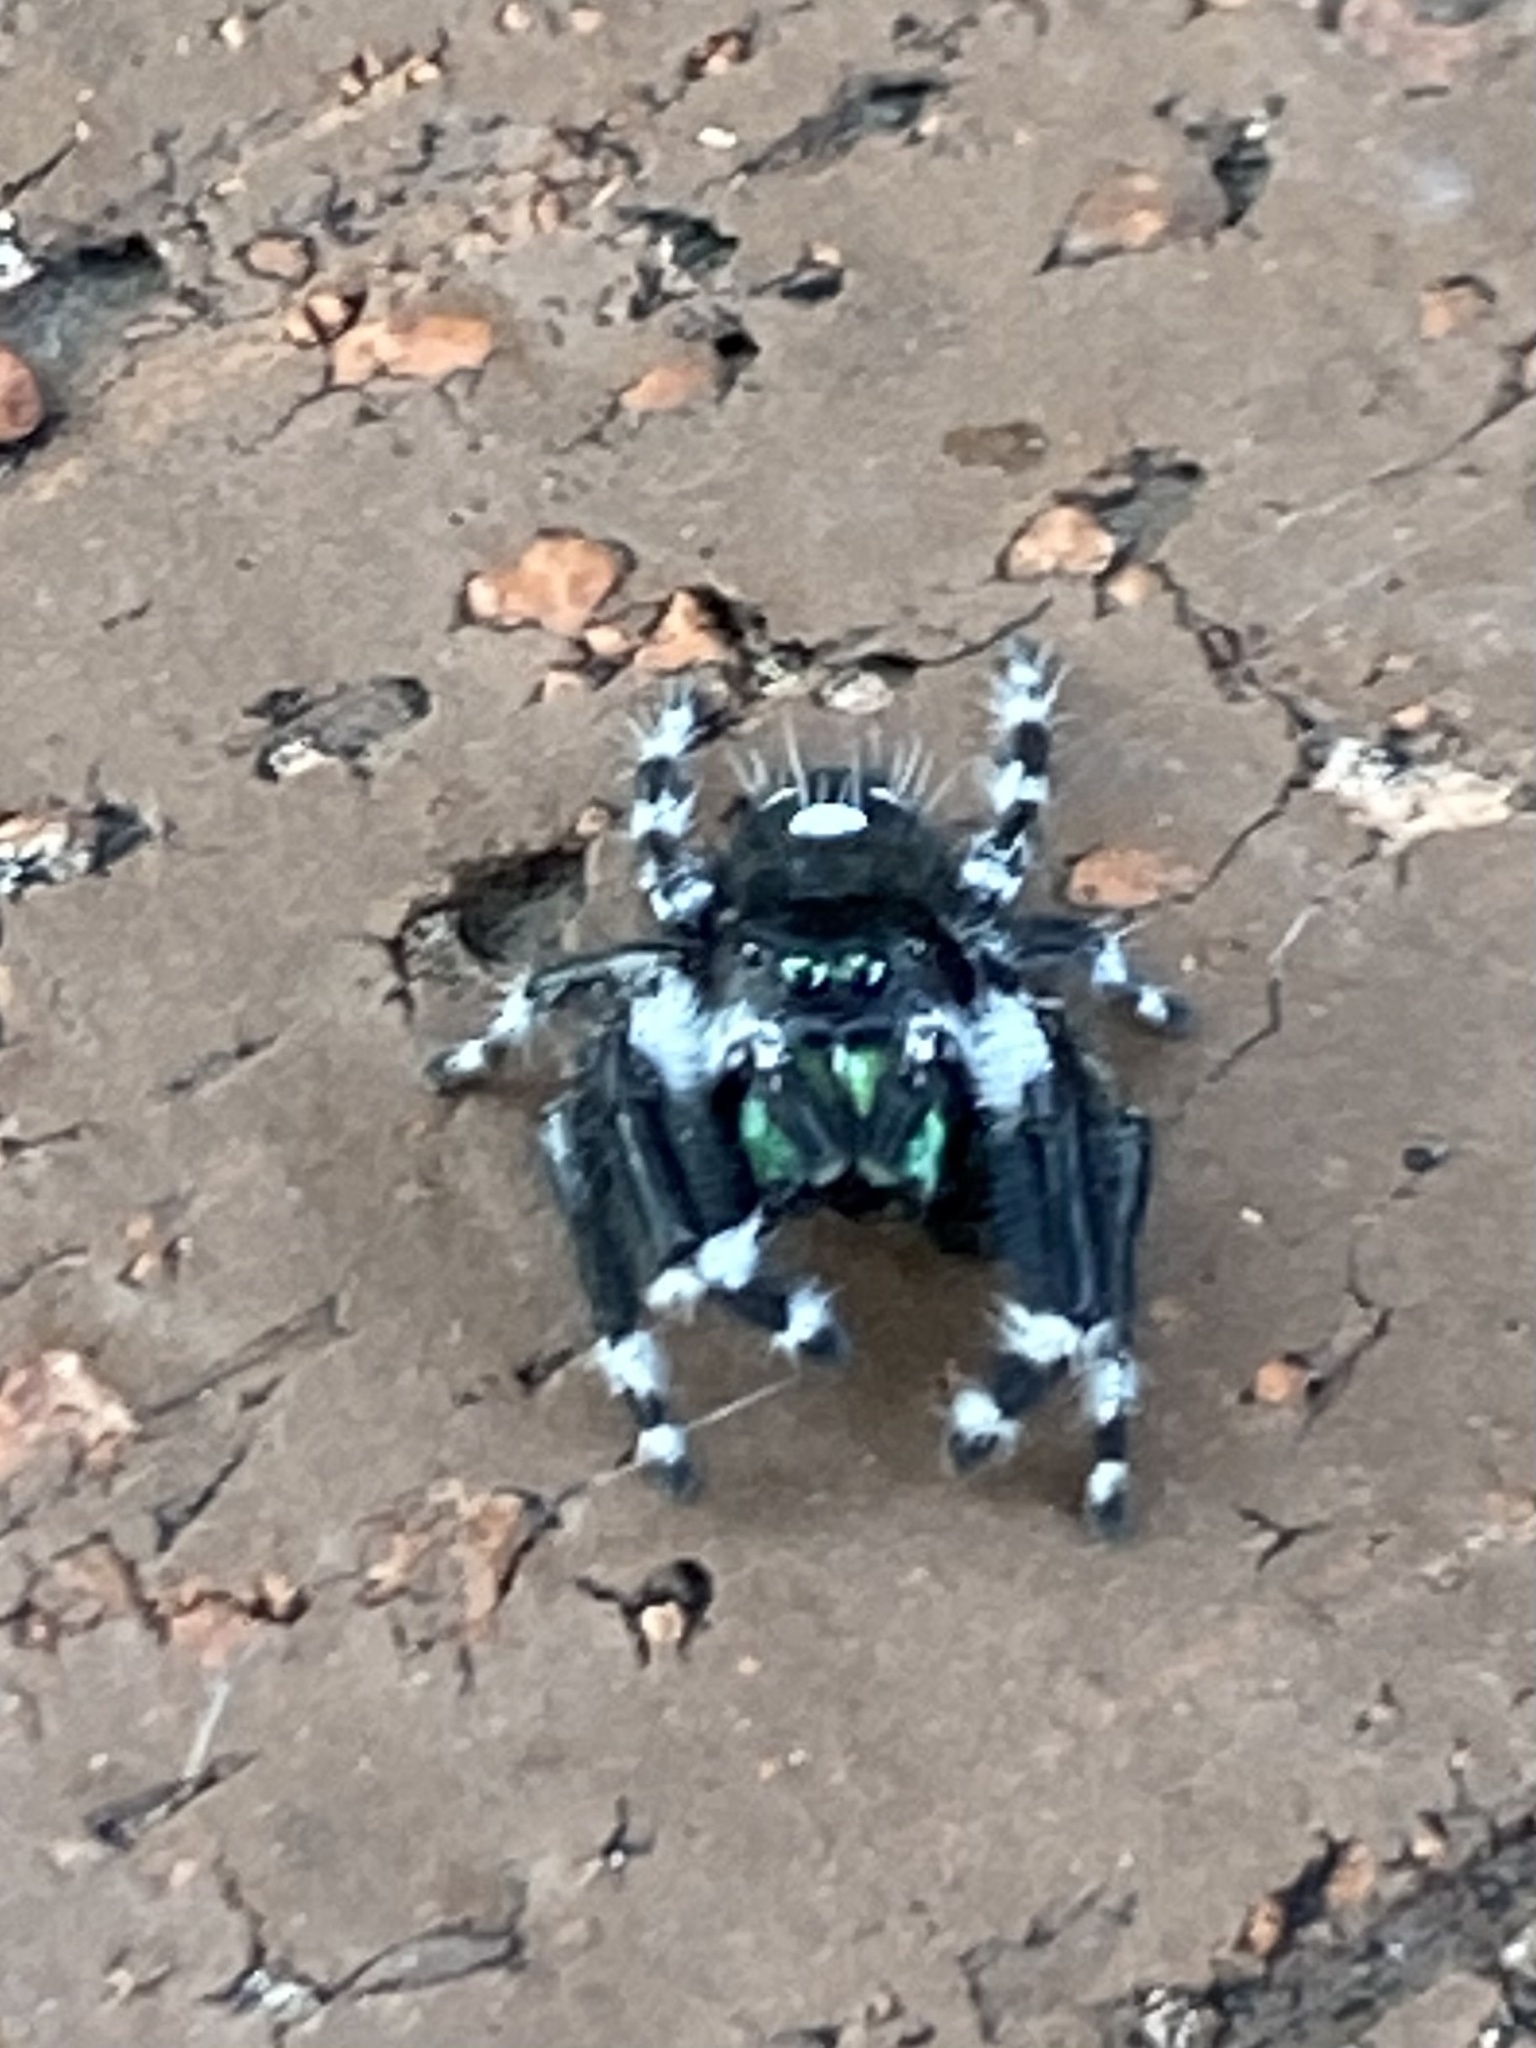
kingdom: Animalia
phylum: Arthropoda
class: Arachnida
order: Araneae
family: Salticidae
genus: Phidippus
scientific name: Phidippus audax
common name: Bold jumper
